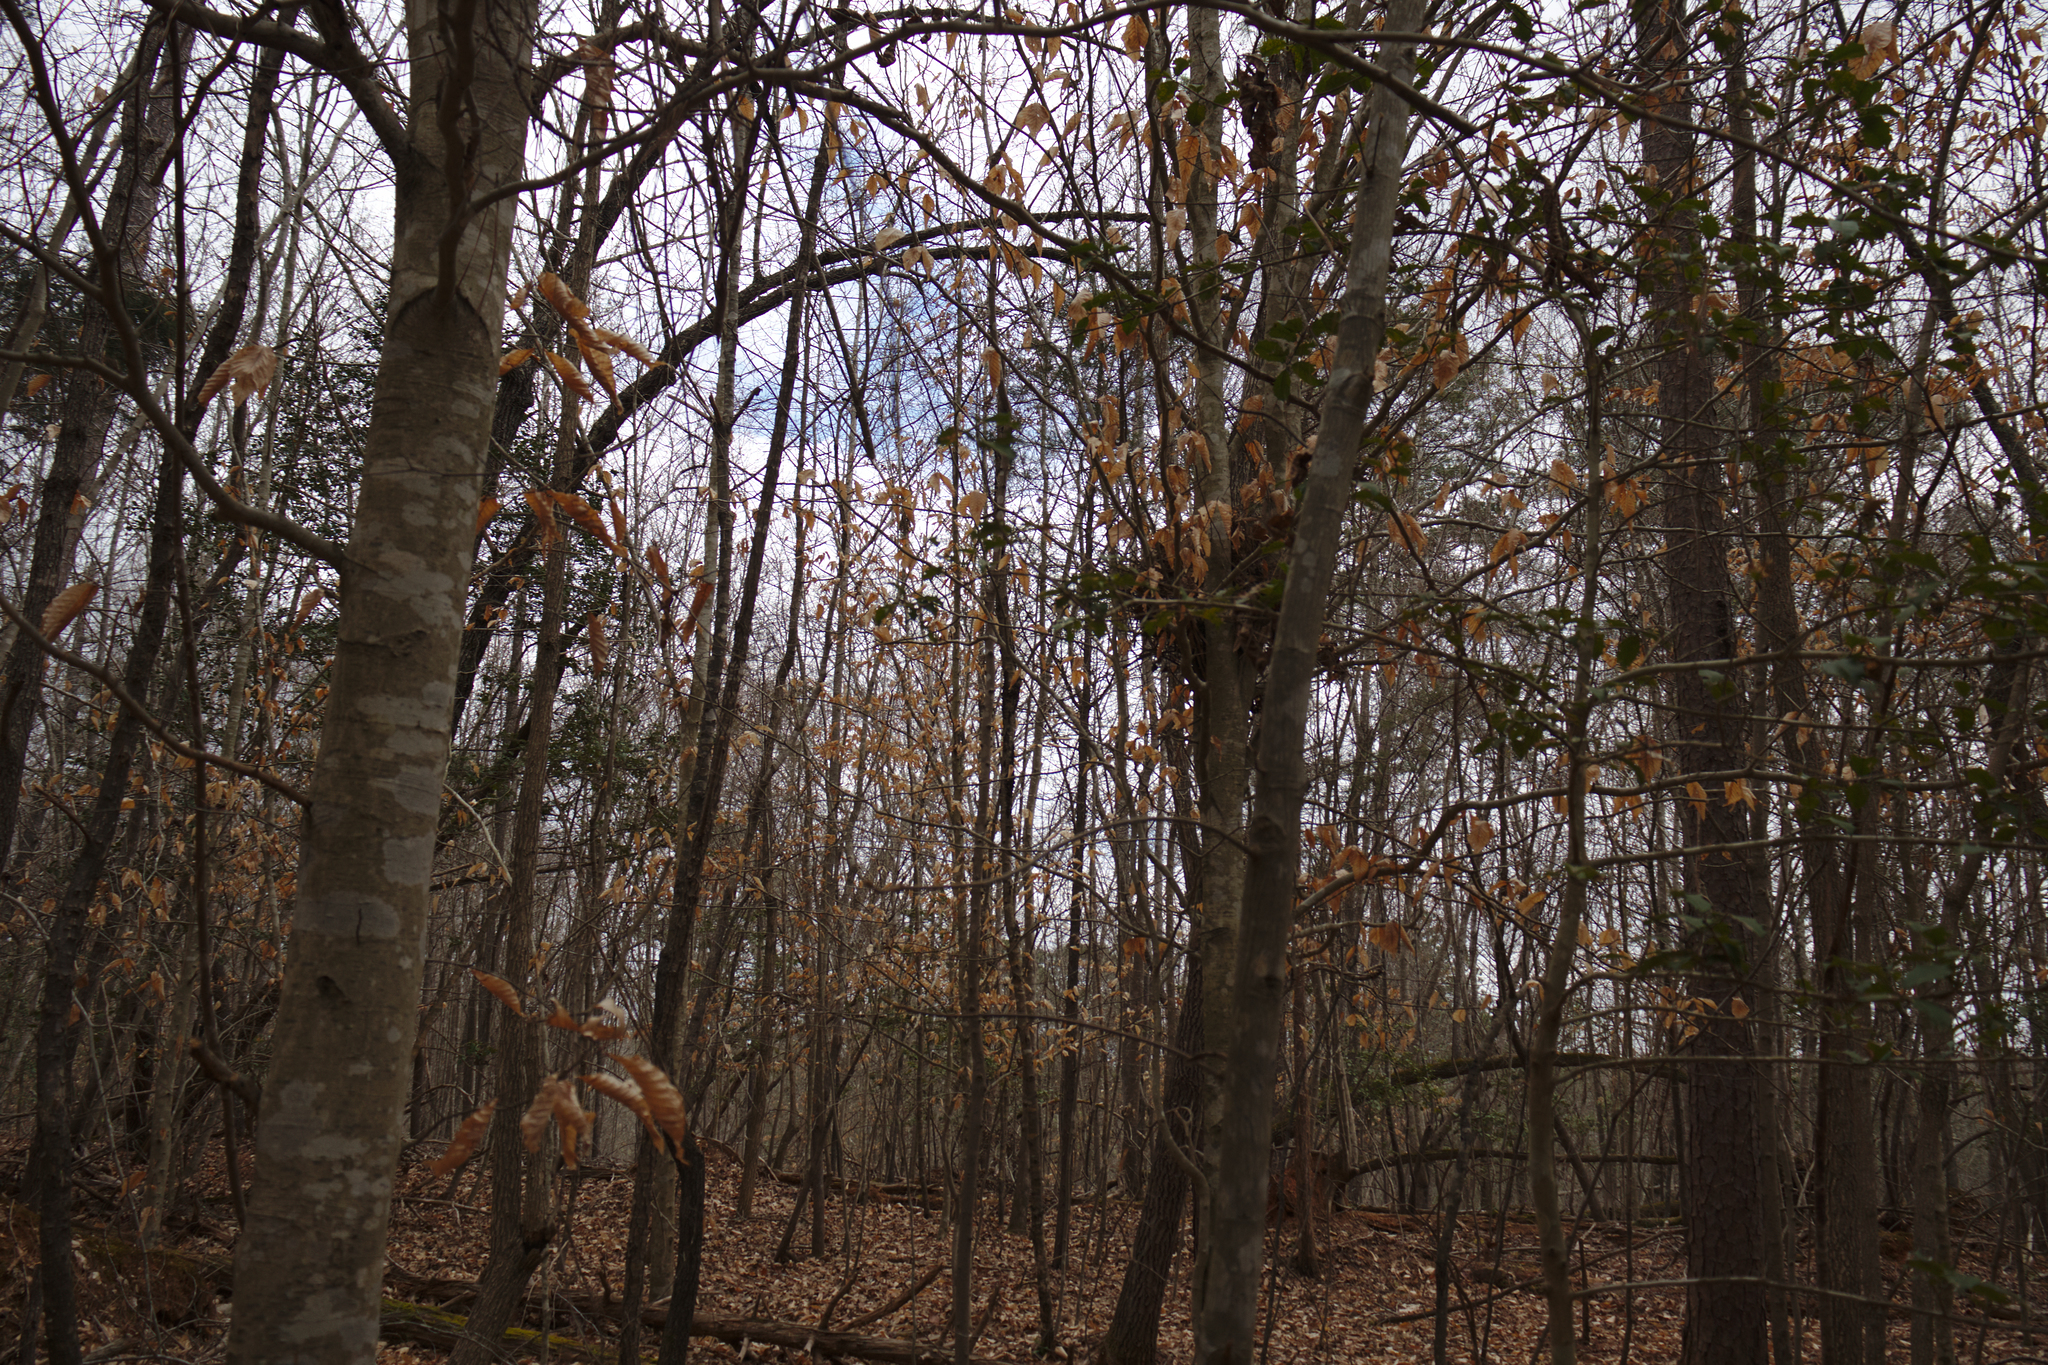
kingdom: Plantae
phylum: Tracheophyta
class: Magnoliopsida
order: Fagales
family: Fagaceae
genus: Fagus
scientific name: Fagus grandifolia
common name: American beech
